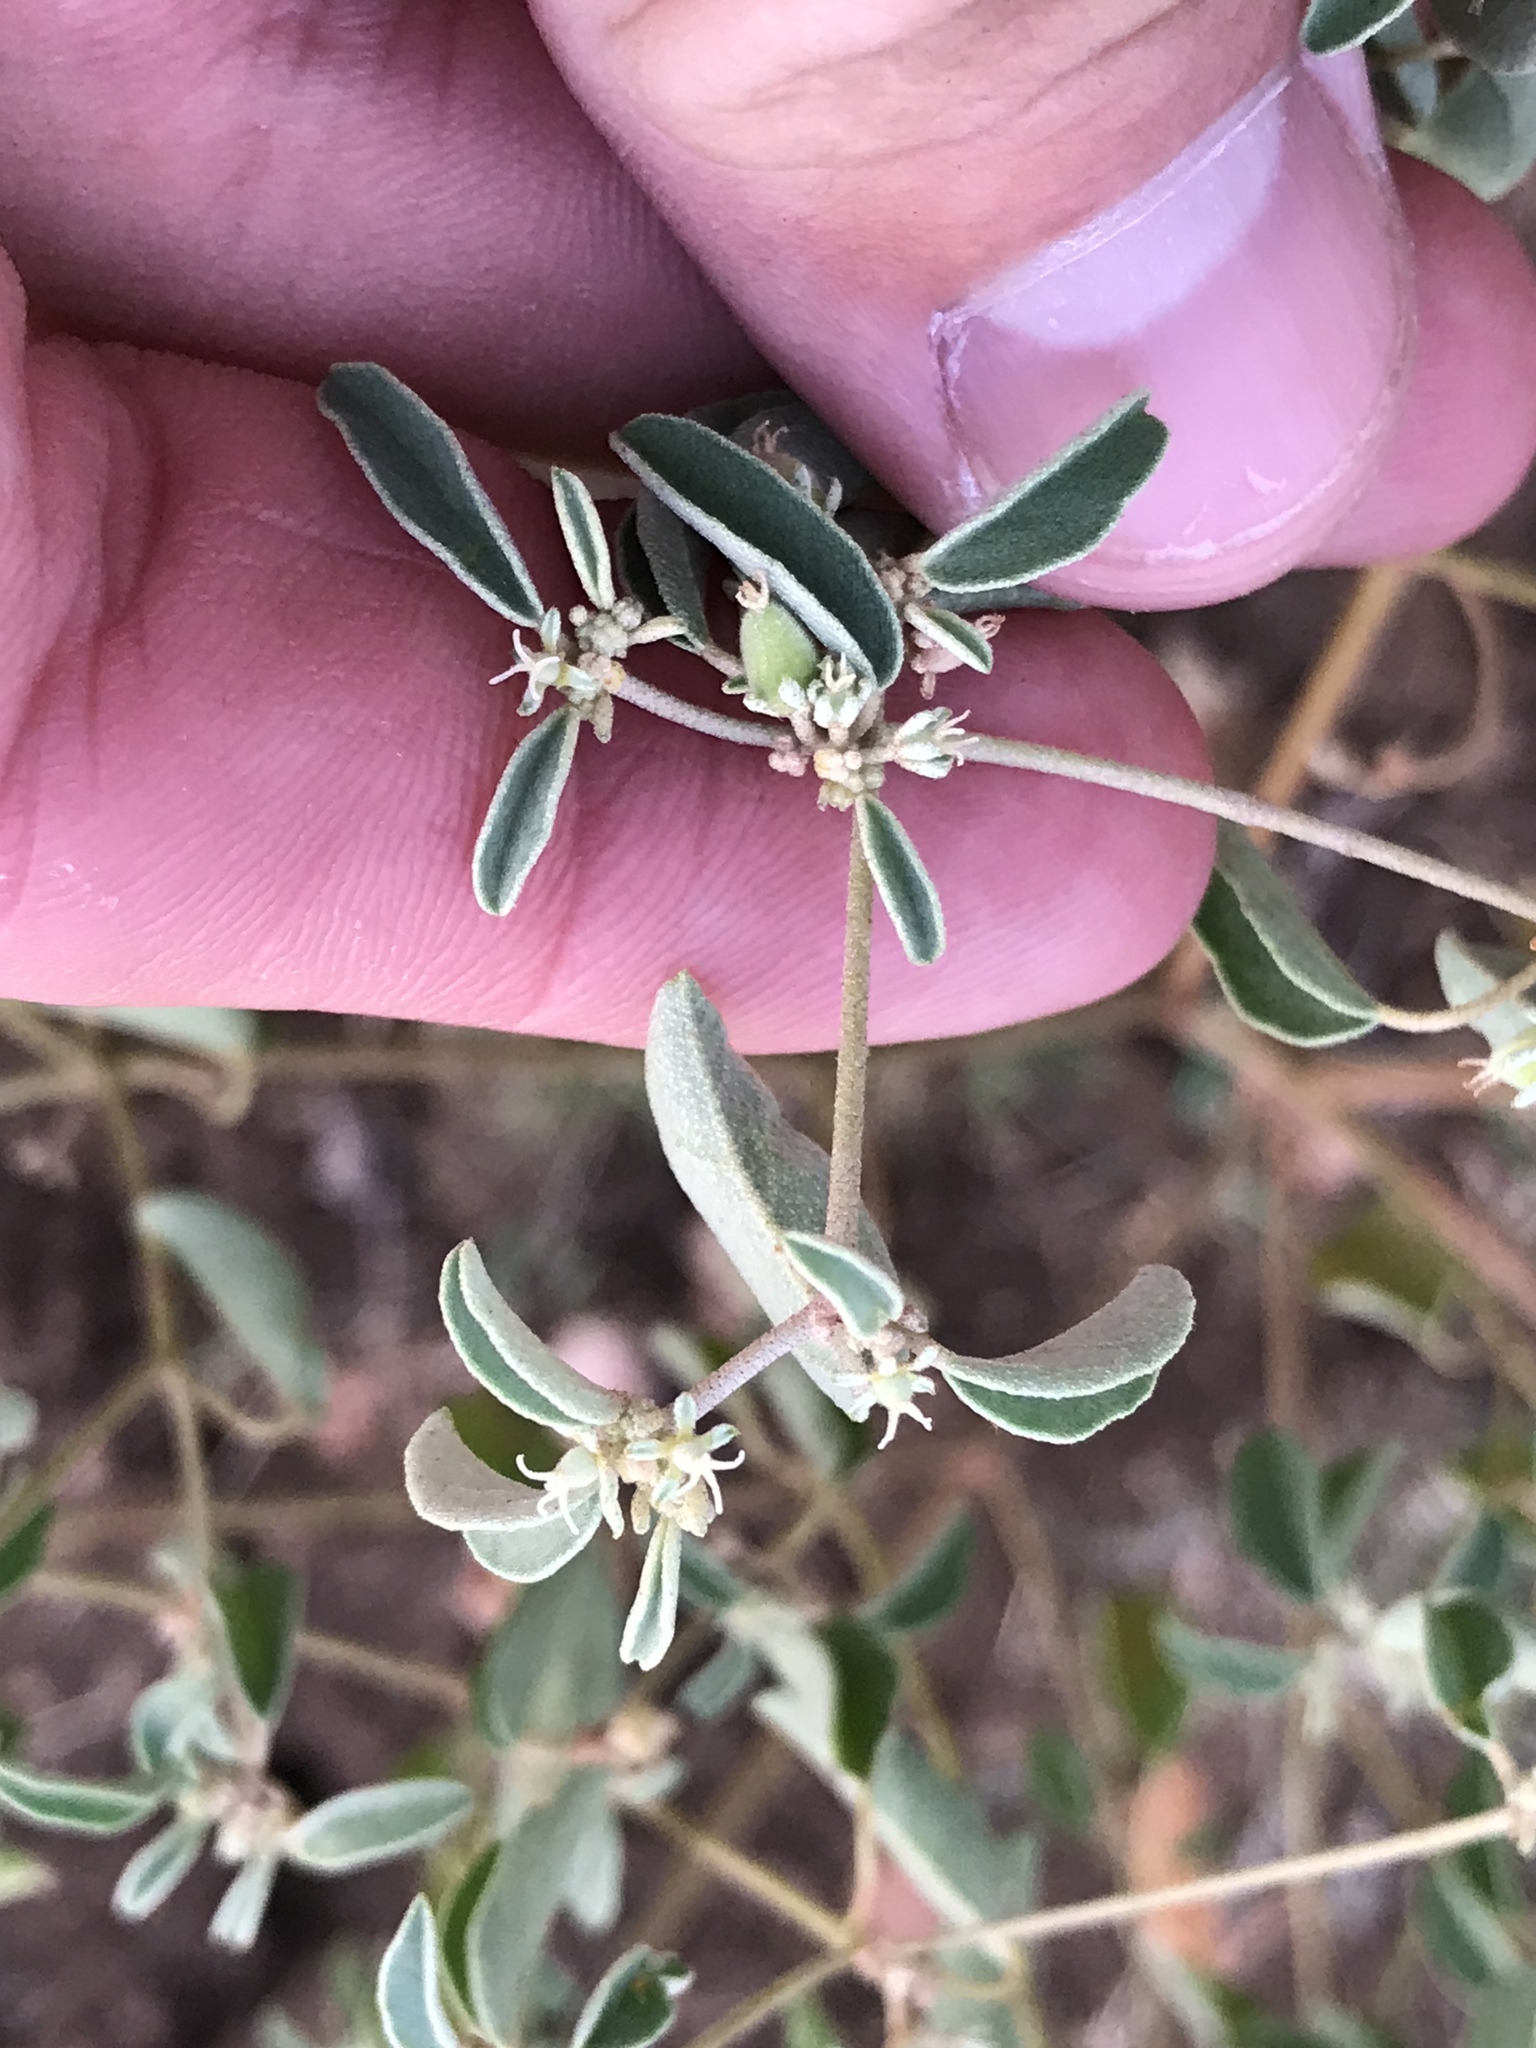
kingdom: Plantae
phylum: Tracheophyta
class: Magnoliopsida
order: Malpighiales
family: Euphorbiaceae
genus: Croton
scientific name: Croton monanthogynus
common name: One-seed croton
